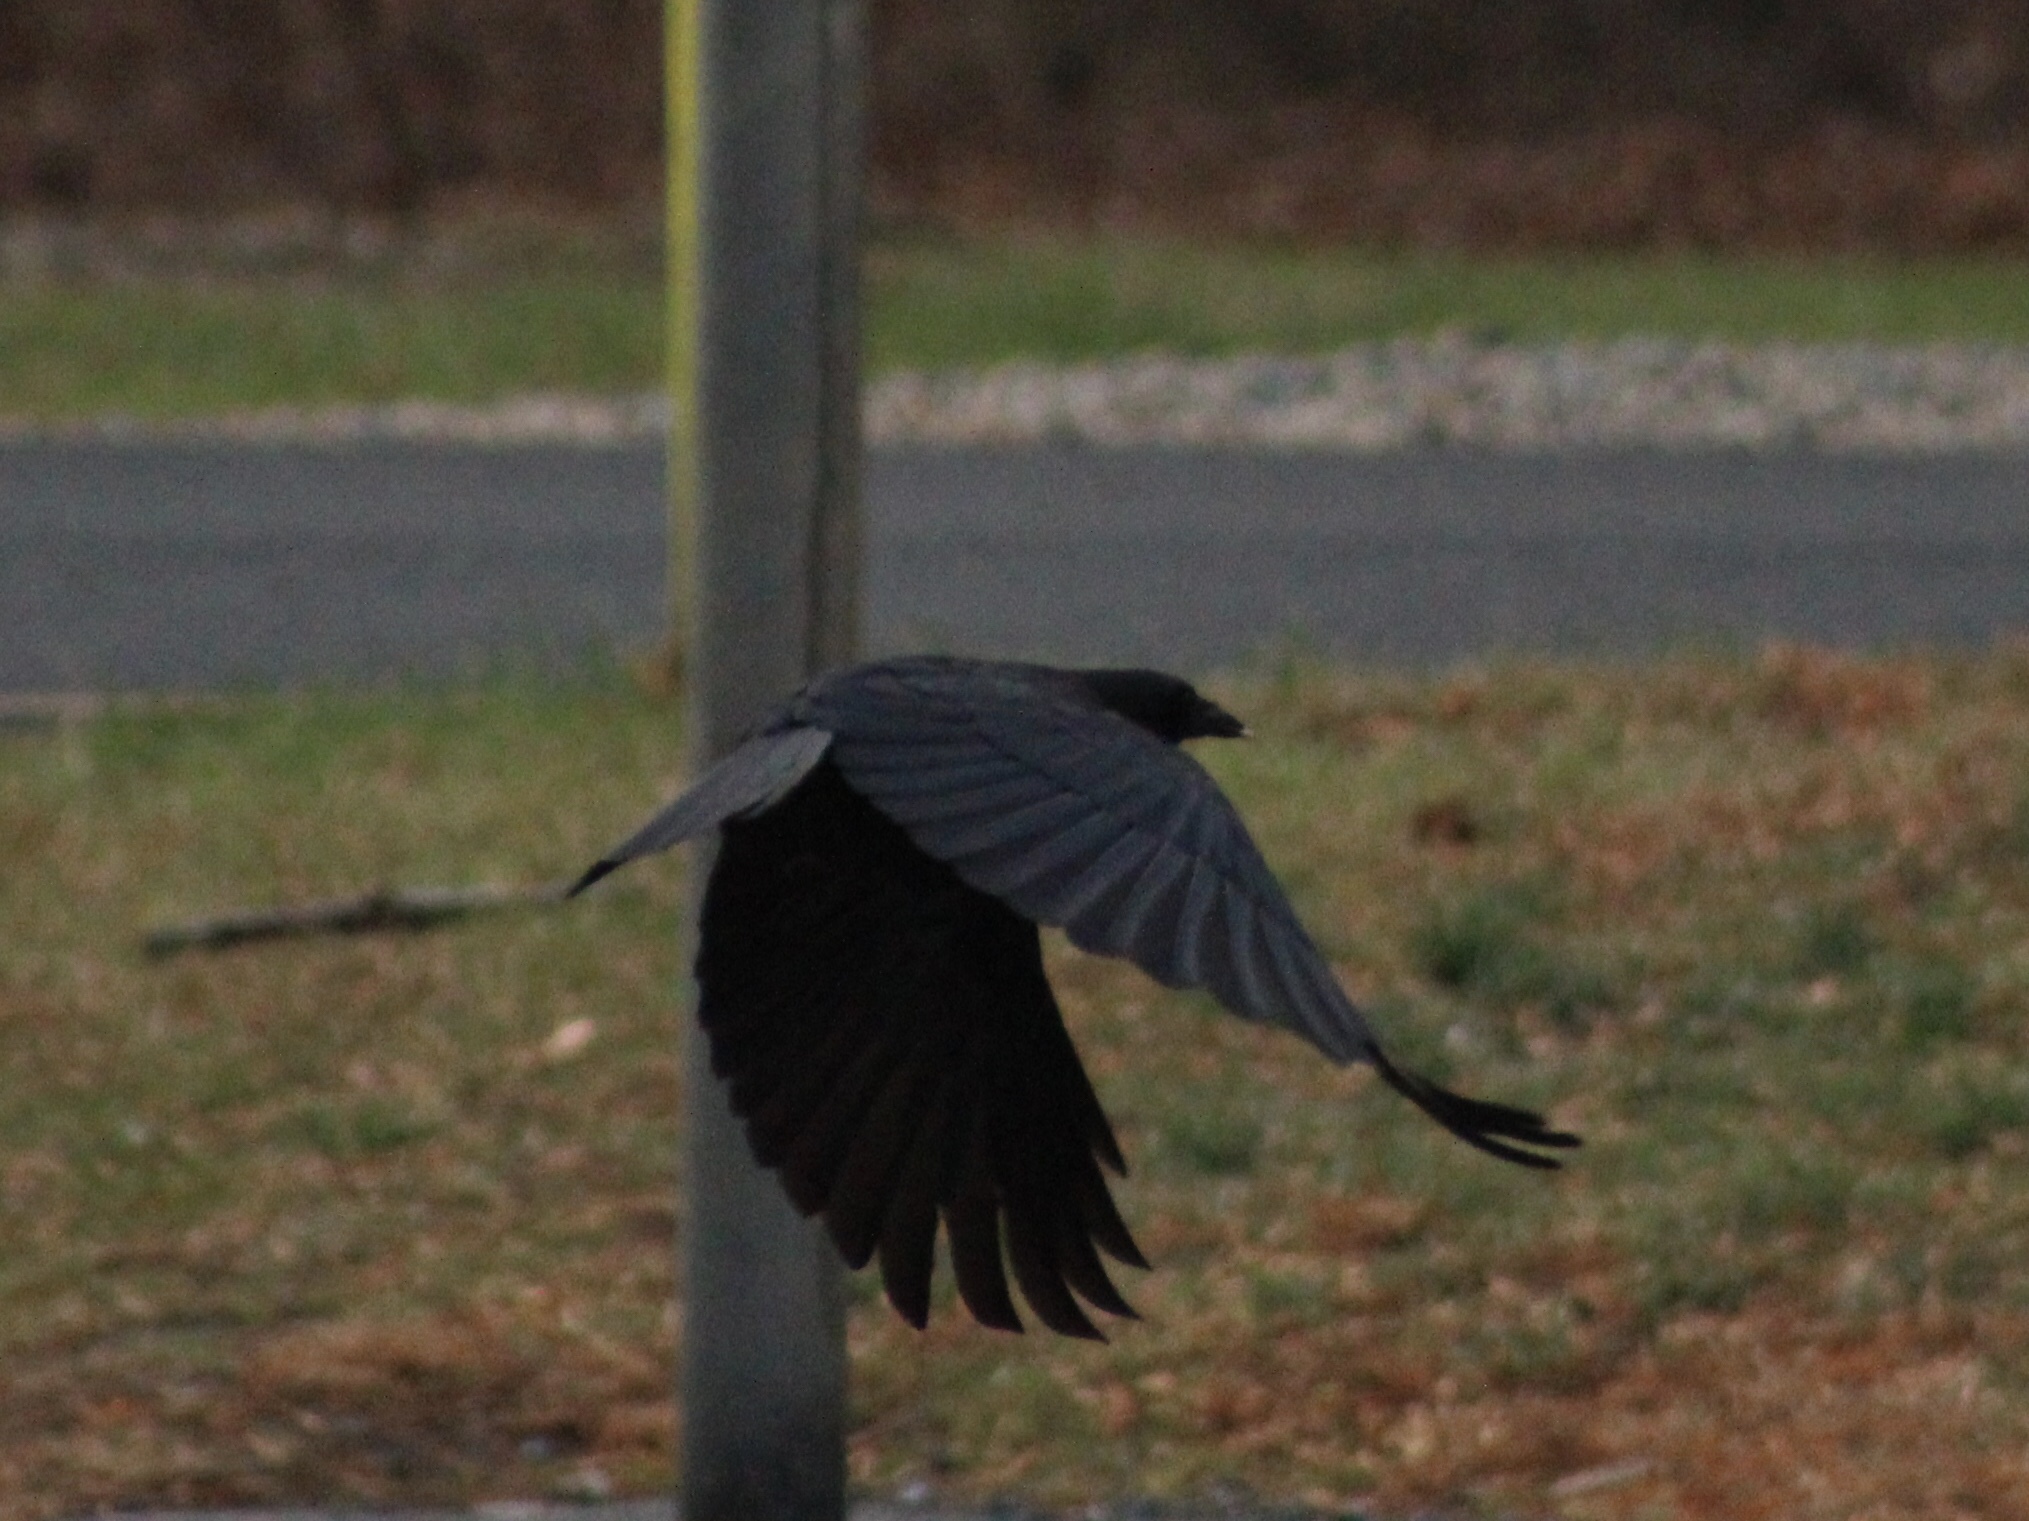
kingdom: Animalia
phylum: Chordata
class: Aves
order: Passeriformes
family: Corvidae
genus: Corvus
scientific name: Corvus brachyrhynchos
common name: American crow
